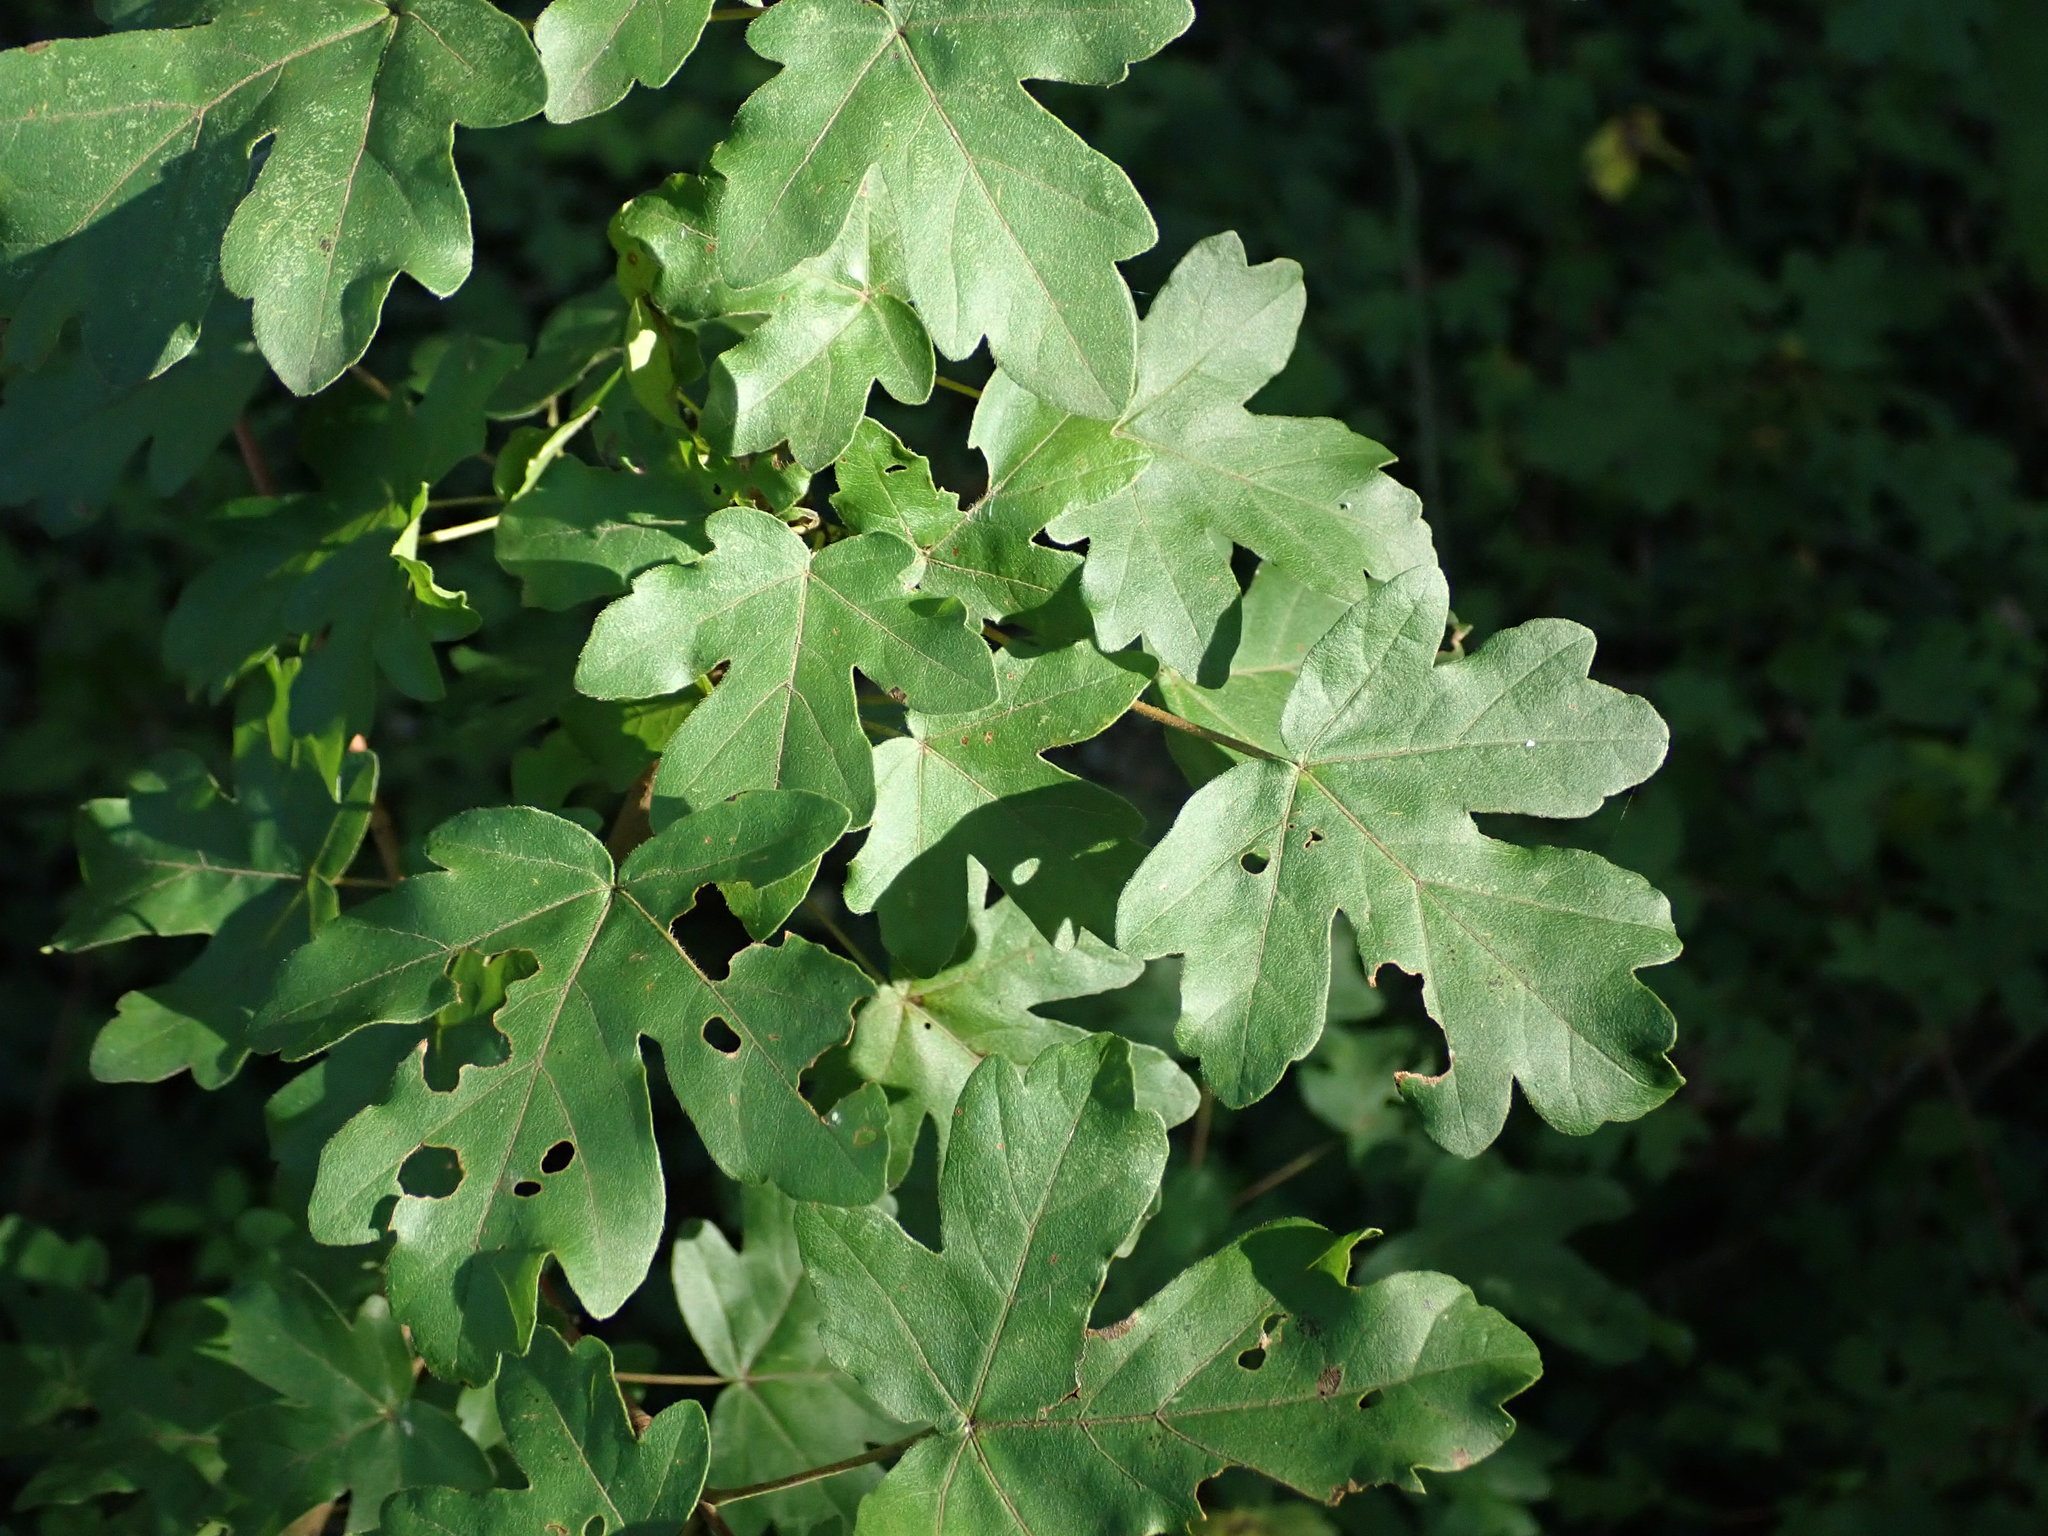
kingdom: Plantae
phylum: Tracheophyta
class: Magnoliopsida
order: Sapindales
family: Sapindaceae
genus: Acer
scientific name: Acer campestre
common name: Field maple
